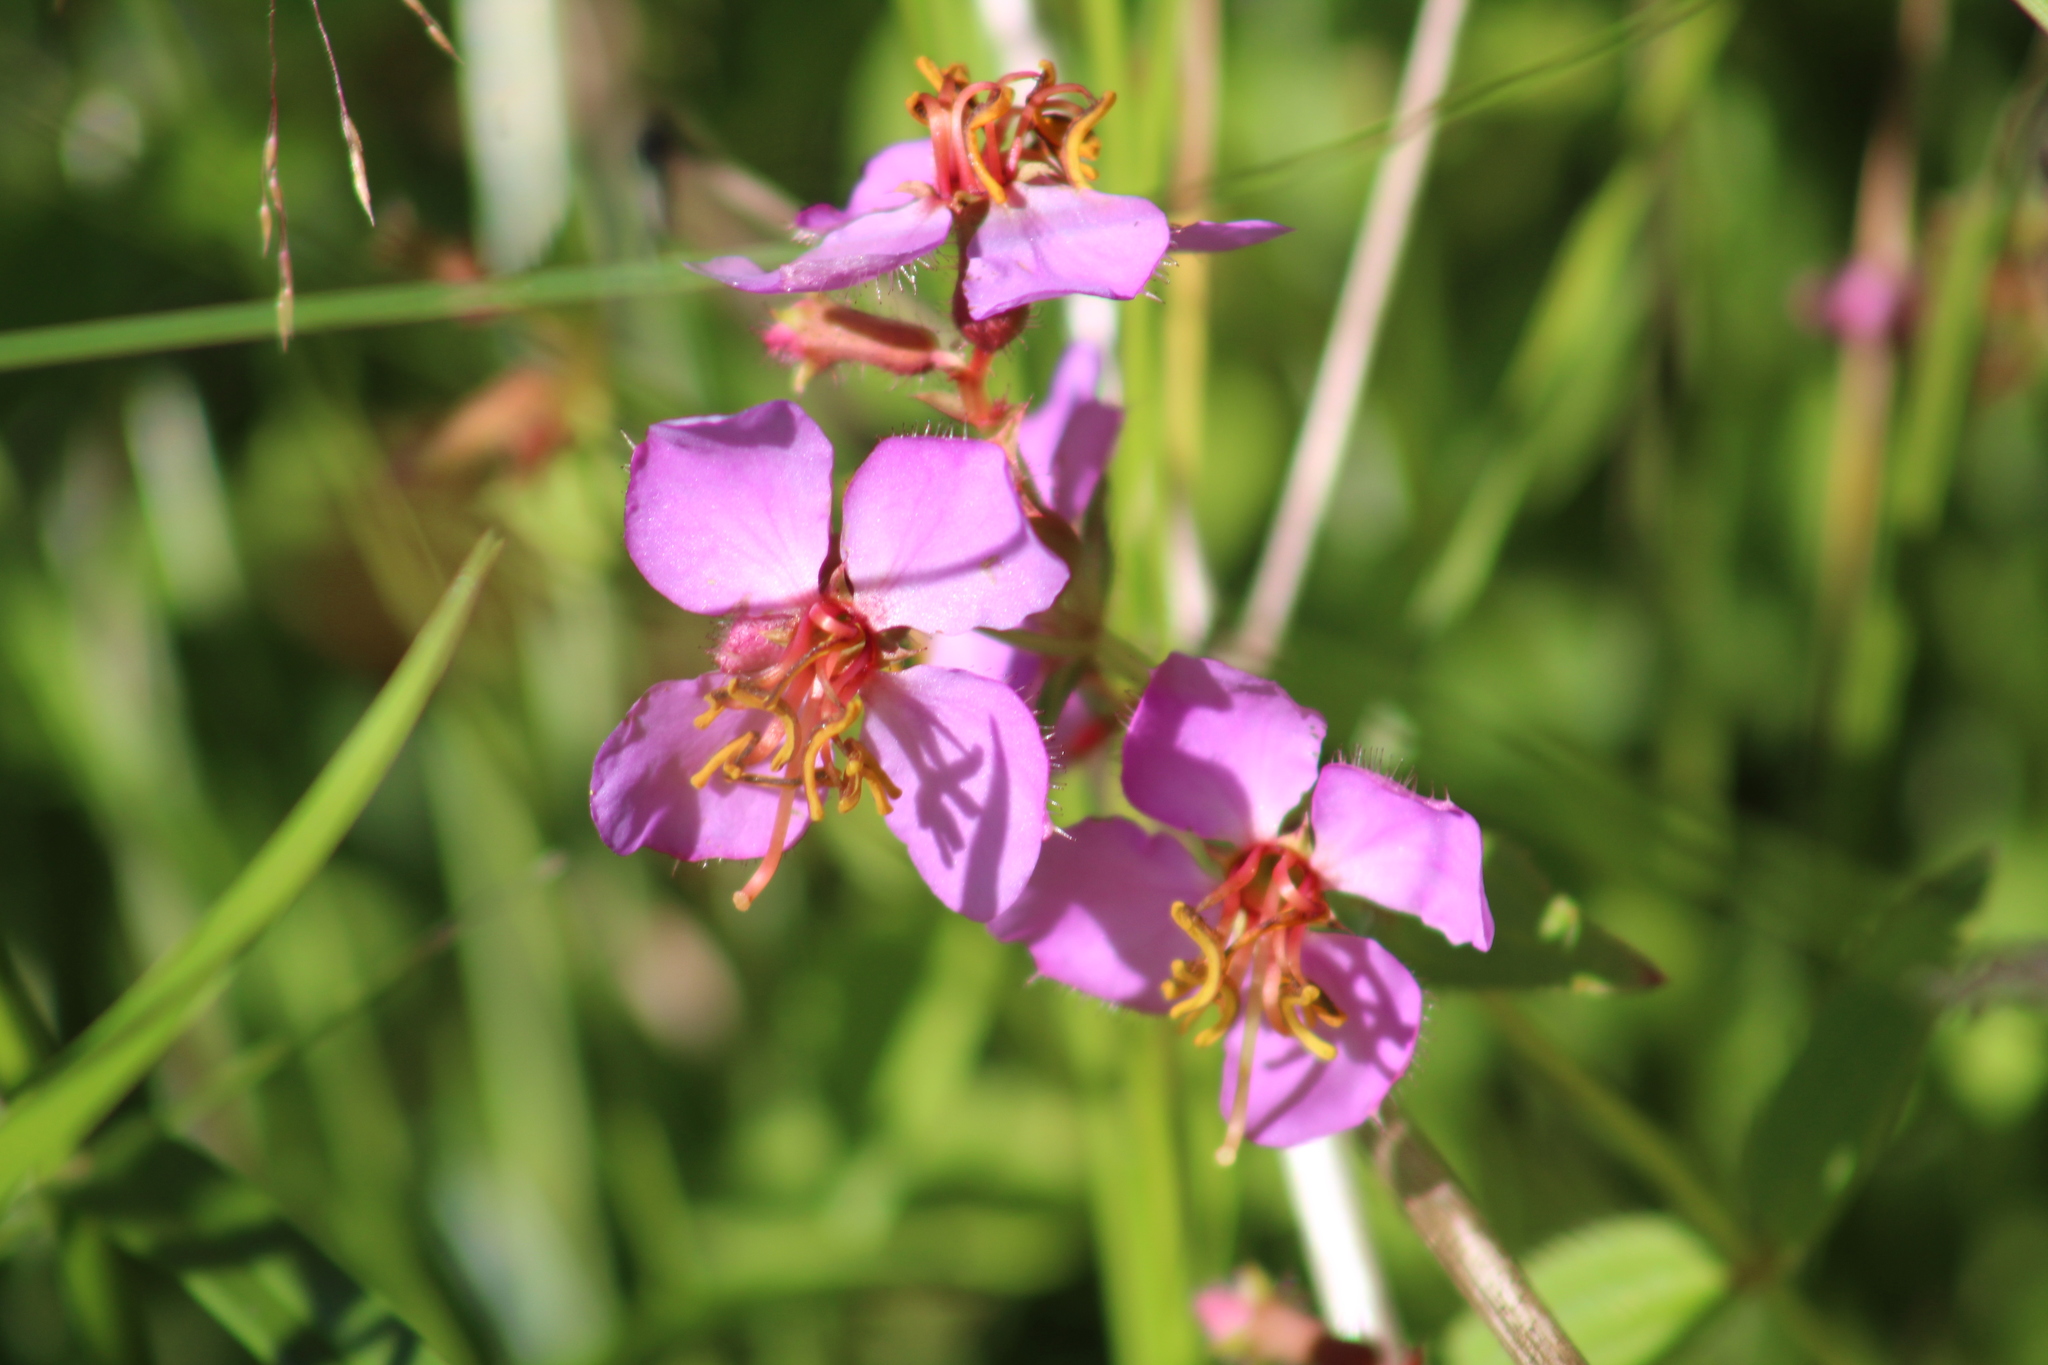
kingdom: Plantae
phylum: Tracheophyta
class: Magnoliopsida
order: Myrtales
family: Melastomataceae
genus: Rhexia
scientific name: Rhexia virginica
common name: Common meadow beauty
